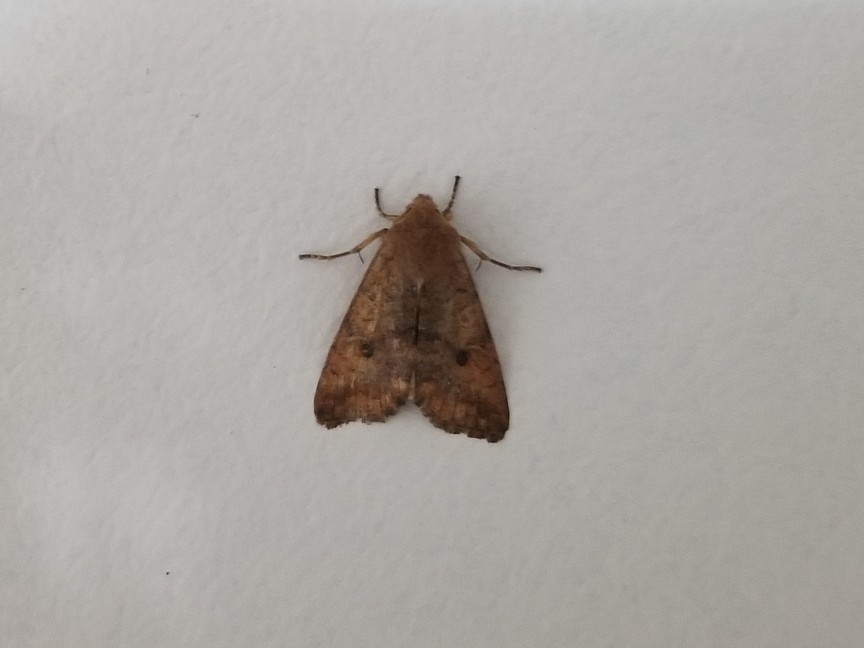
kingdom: Animalia
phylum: Arthropoda
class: Insecta
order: Lepidoptera
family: Noctuidae
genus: Agrochola
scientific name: Agrochola verberata
